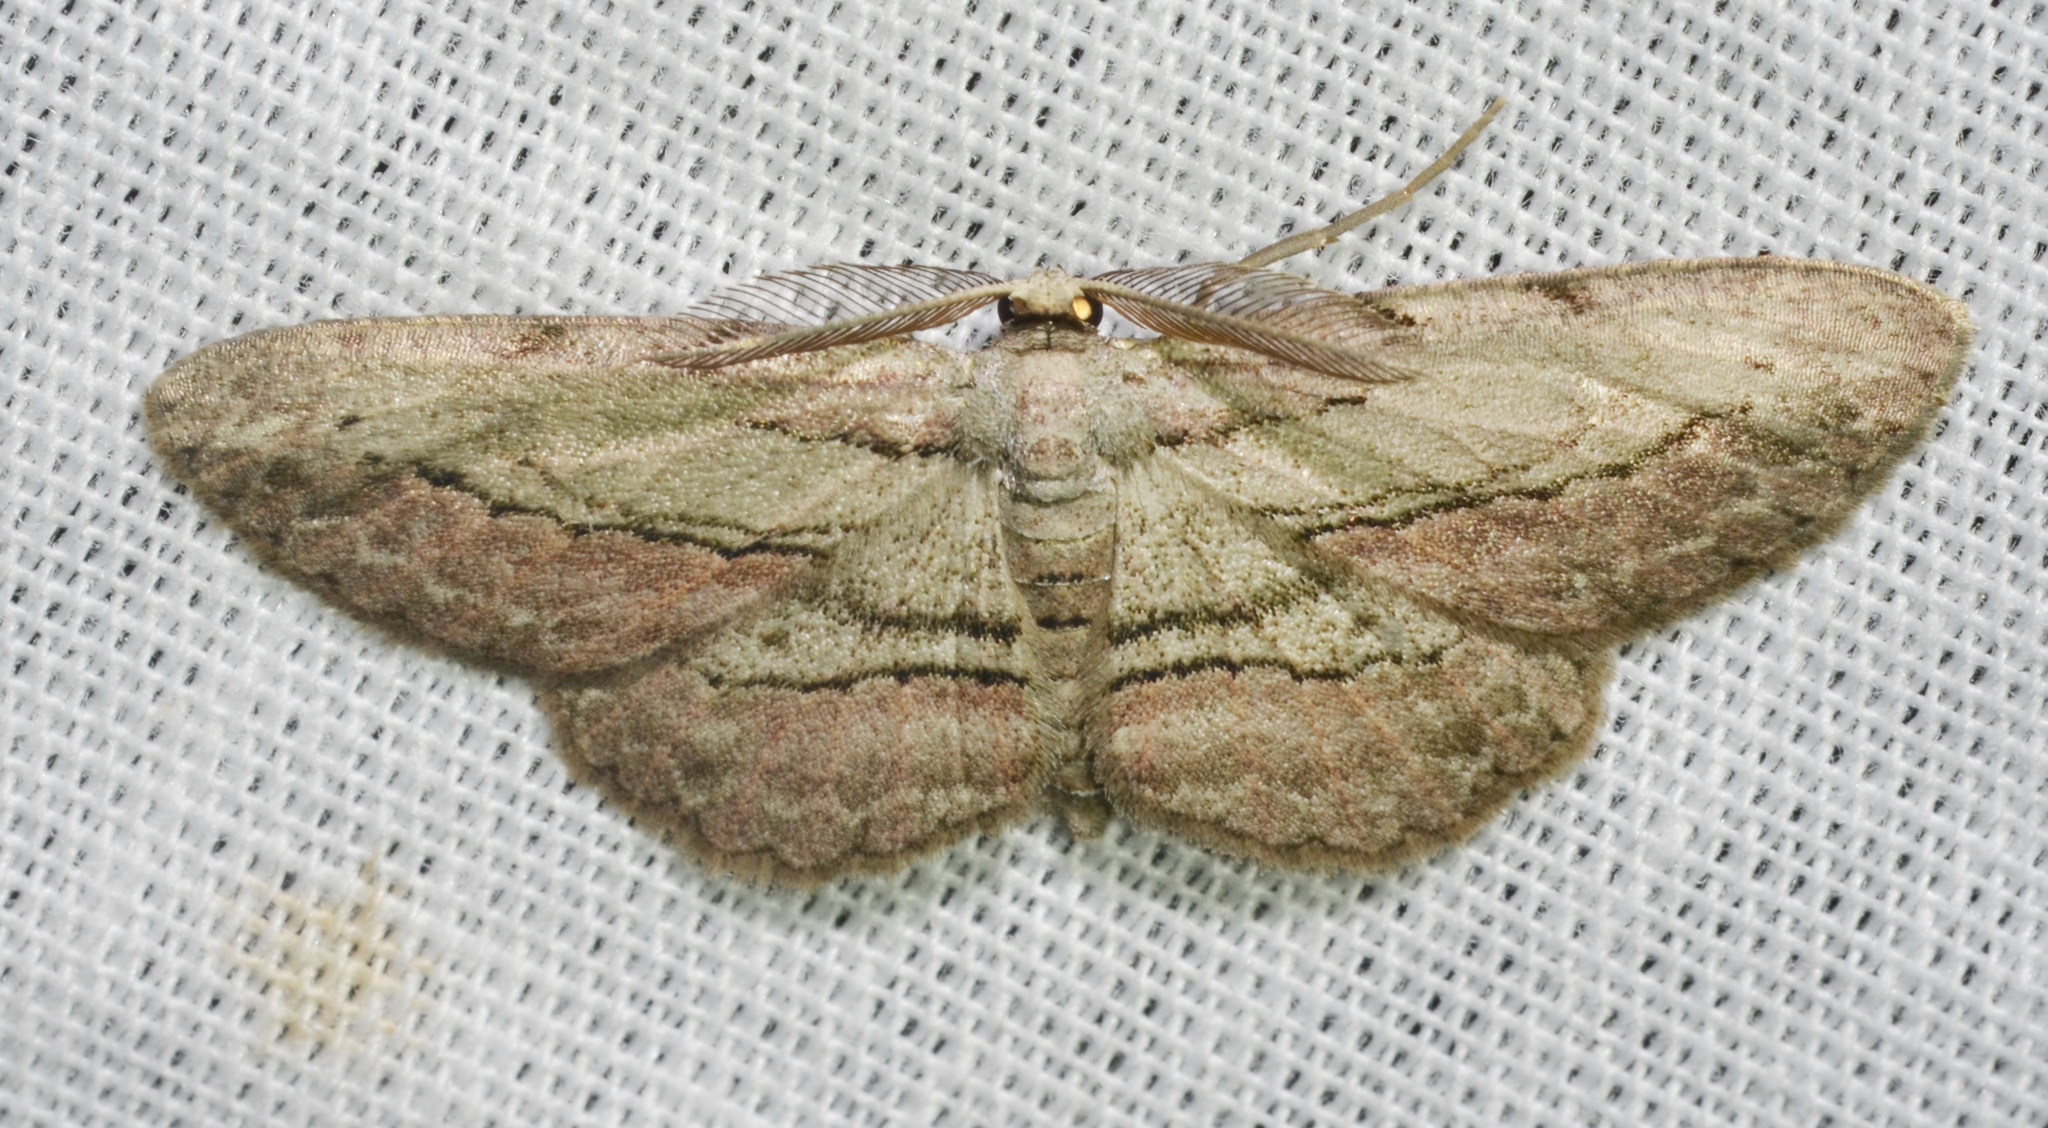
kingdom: Animalia
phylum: Arthropoda
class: Insecta
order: Lepidoptera
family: Geometridae
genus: Glena
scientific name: Glena plumosaria
